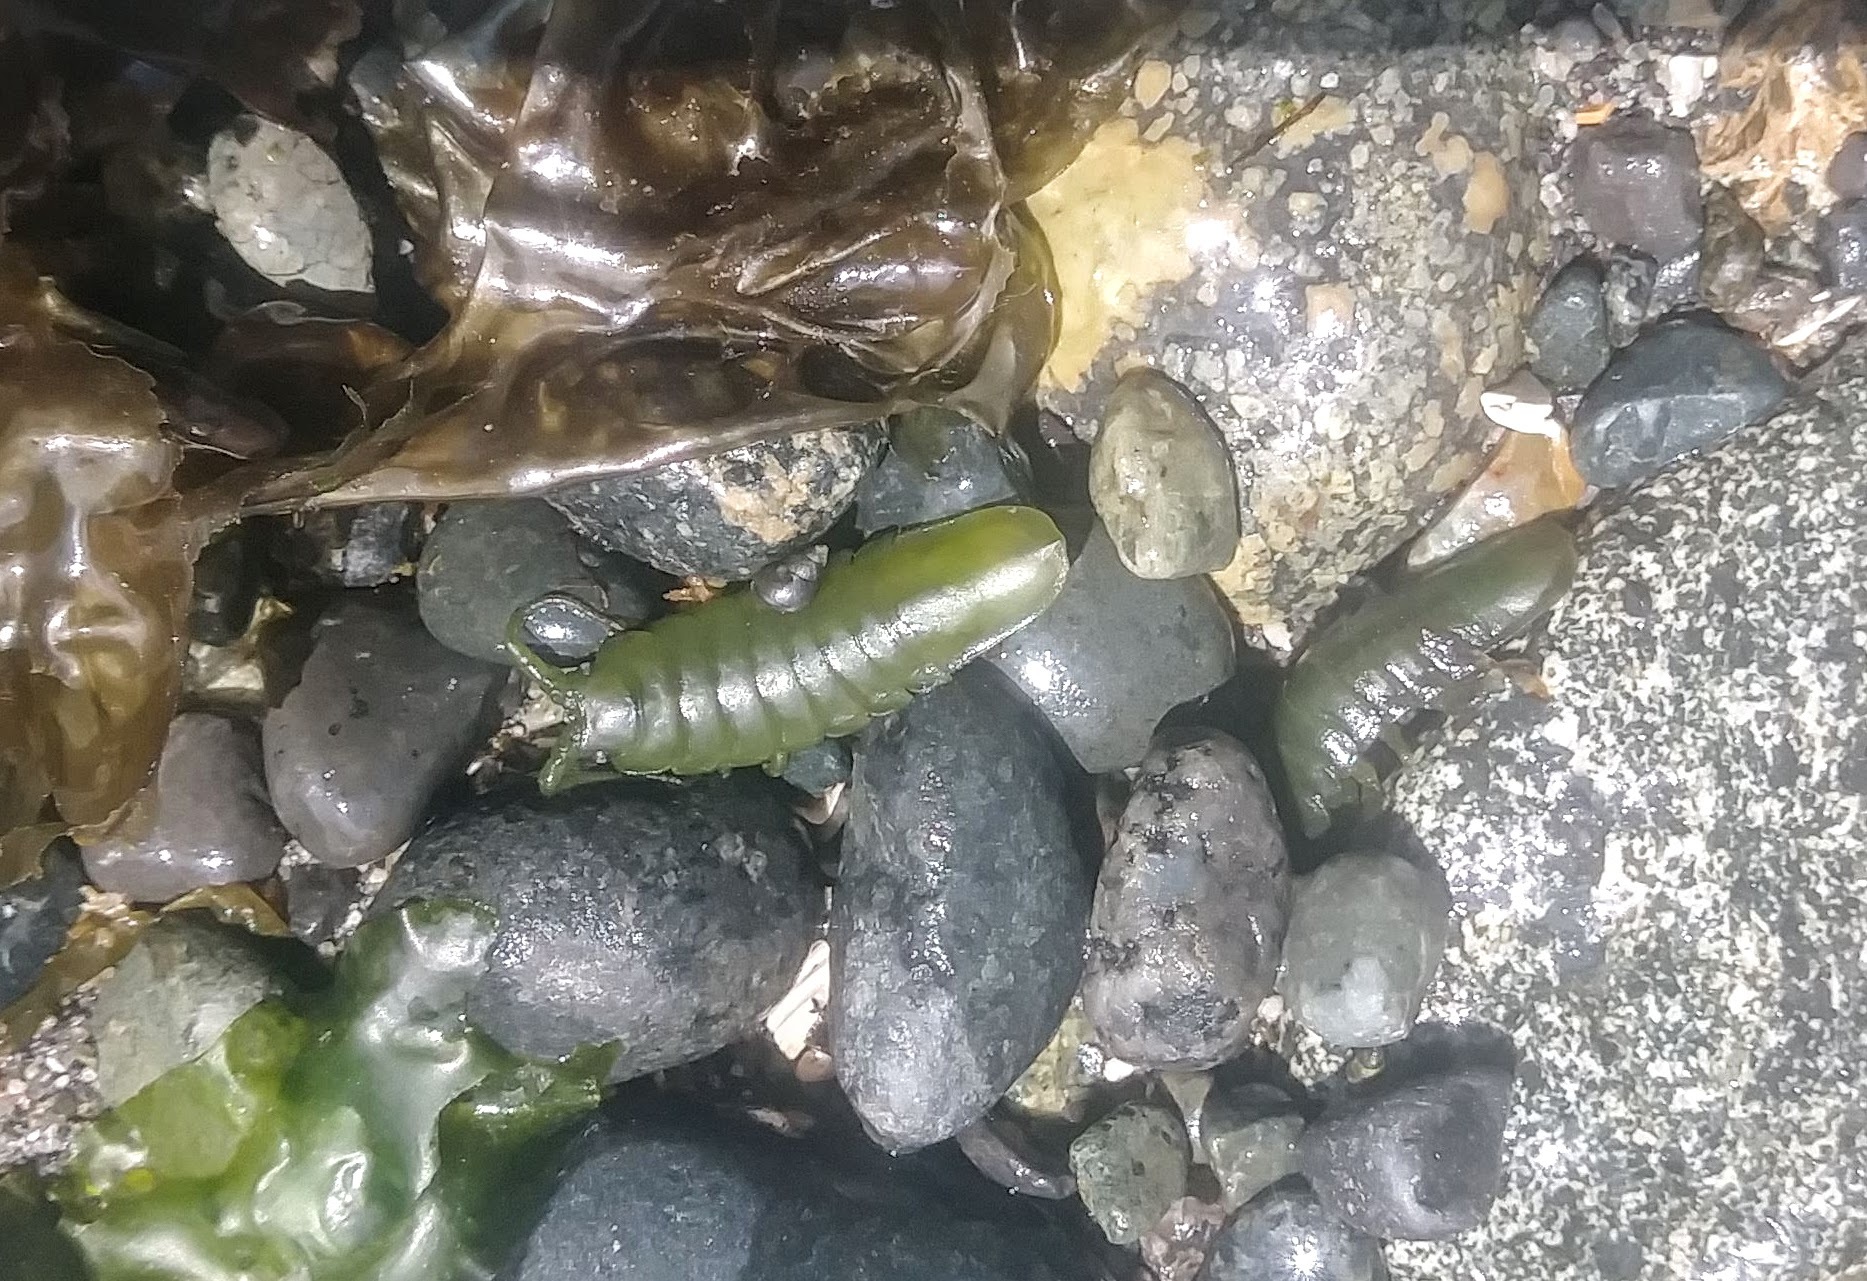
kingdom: Animalia
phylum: Arthropoda
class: Malacostraca
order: Isopoda
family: Idoteidae
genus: Pentidotea
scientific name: Pentidotea wosnesenskii
